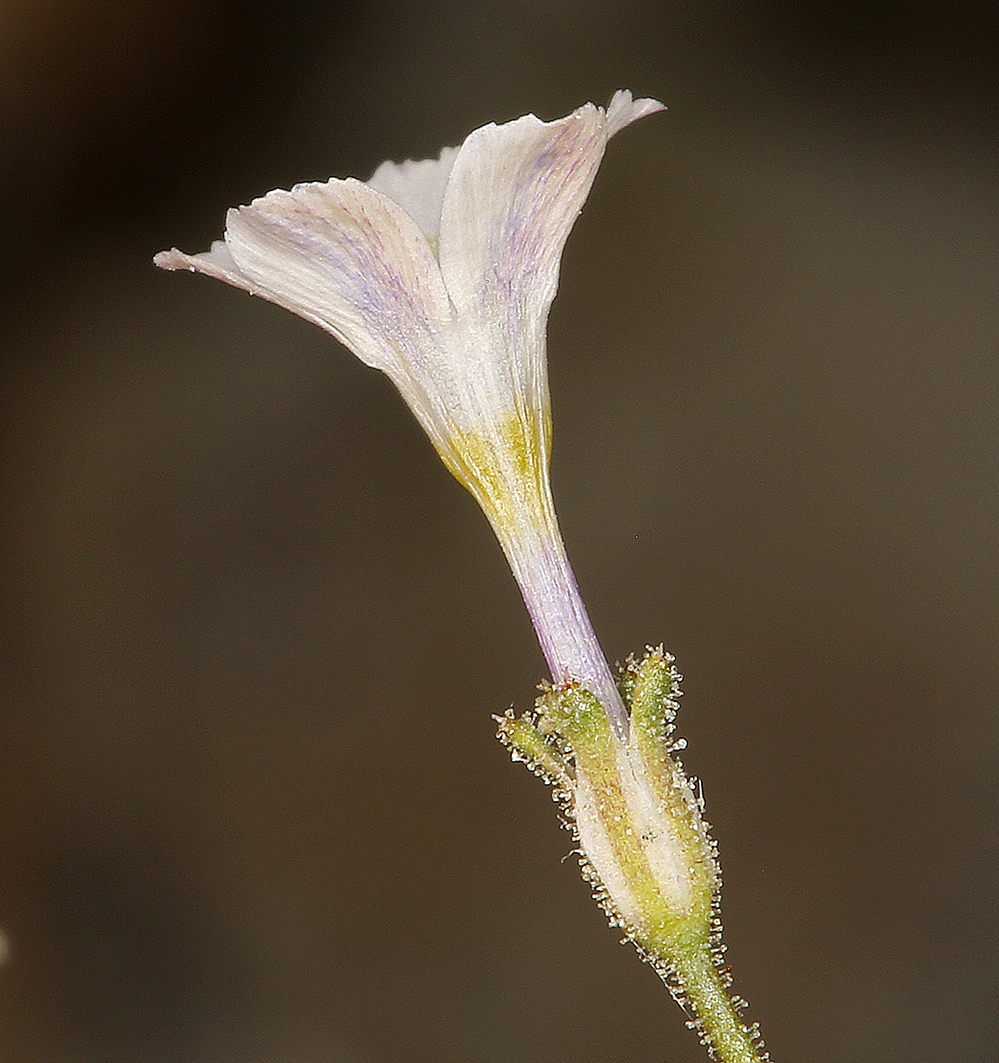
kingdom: Plantae
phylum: Tracheophyta
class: Magnoliopsida
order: Ericales
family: Polemoniaceae
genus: Aliciella
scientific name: Aliciella hutchinsifolia
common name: Desert pale gilia
